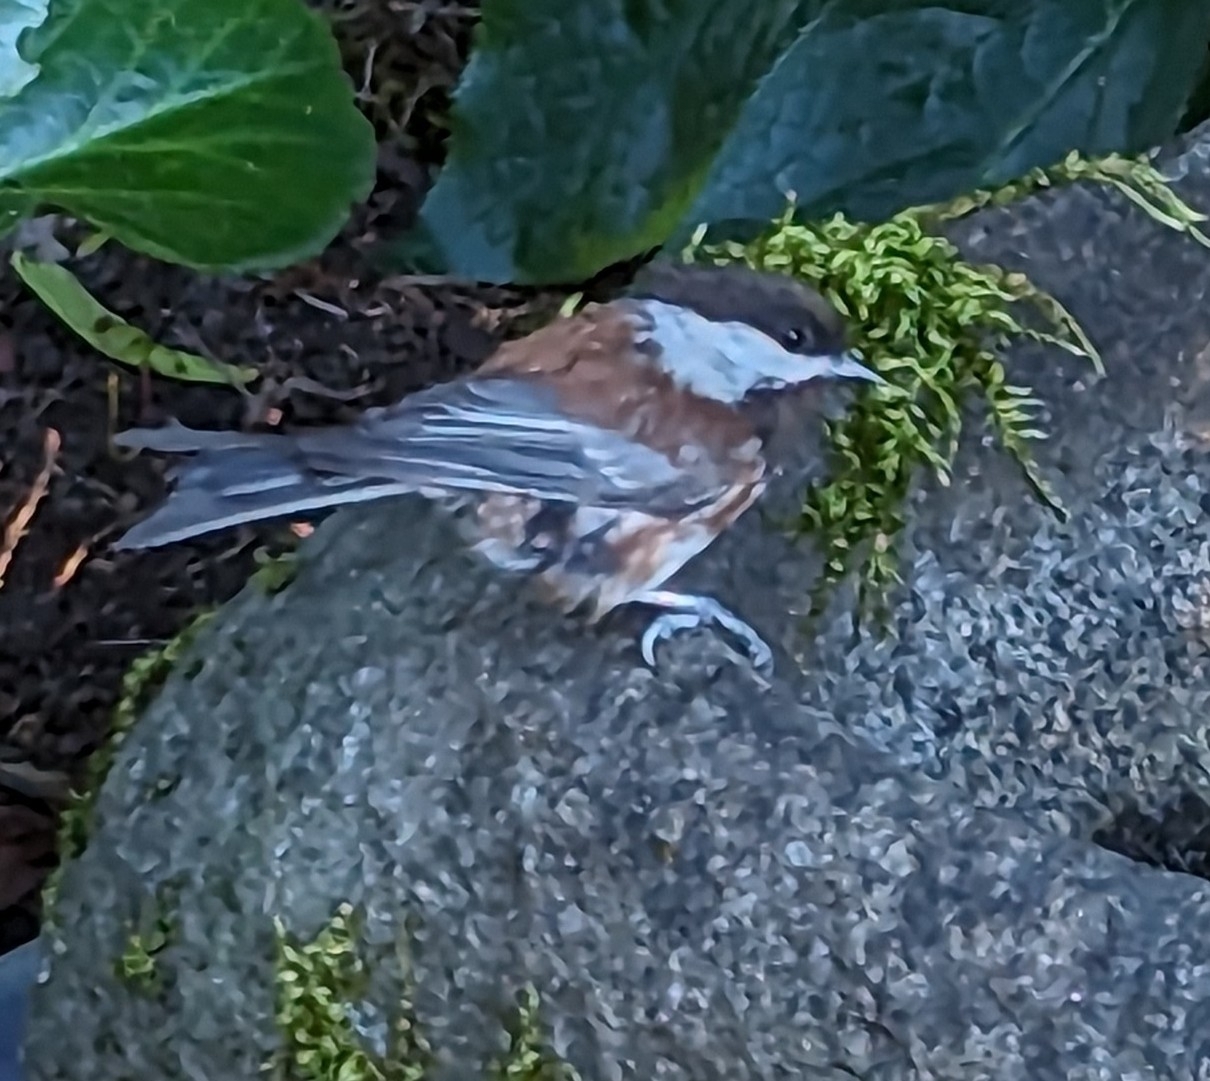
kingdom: Animalia
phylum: Chordata
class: Aves
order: Passeriformes
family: Paridae
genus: Poecile
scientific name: Poecile rufescens
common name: Chestnut-backed chickadee
